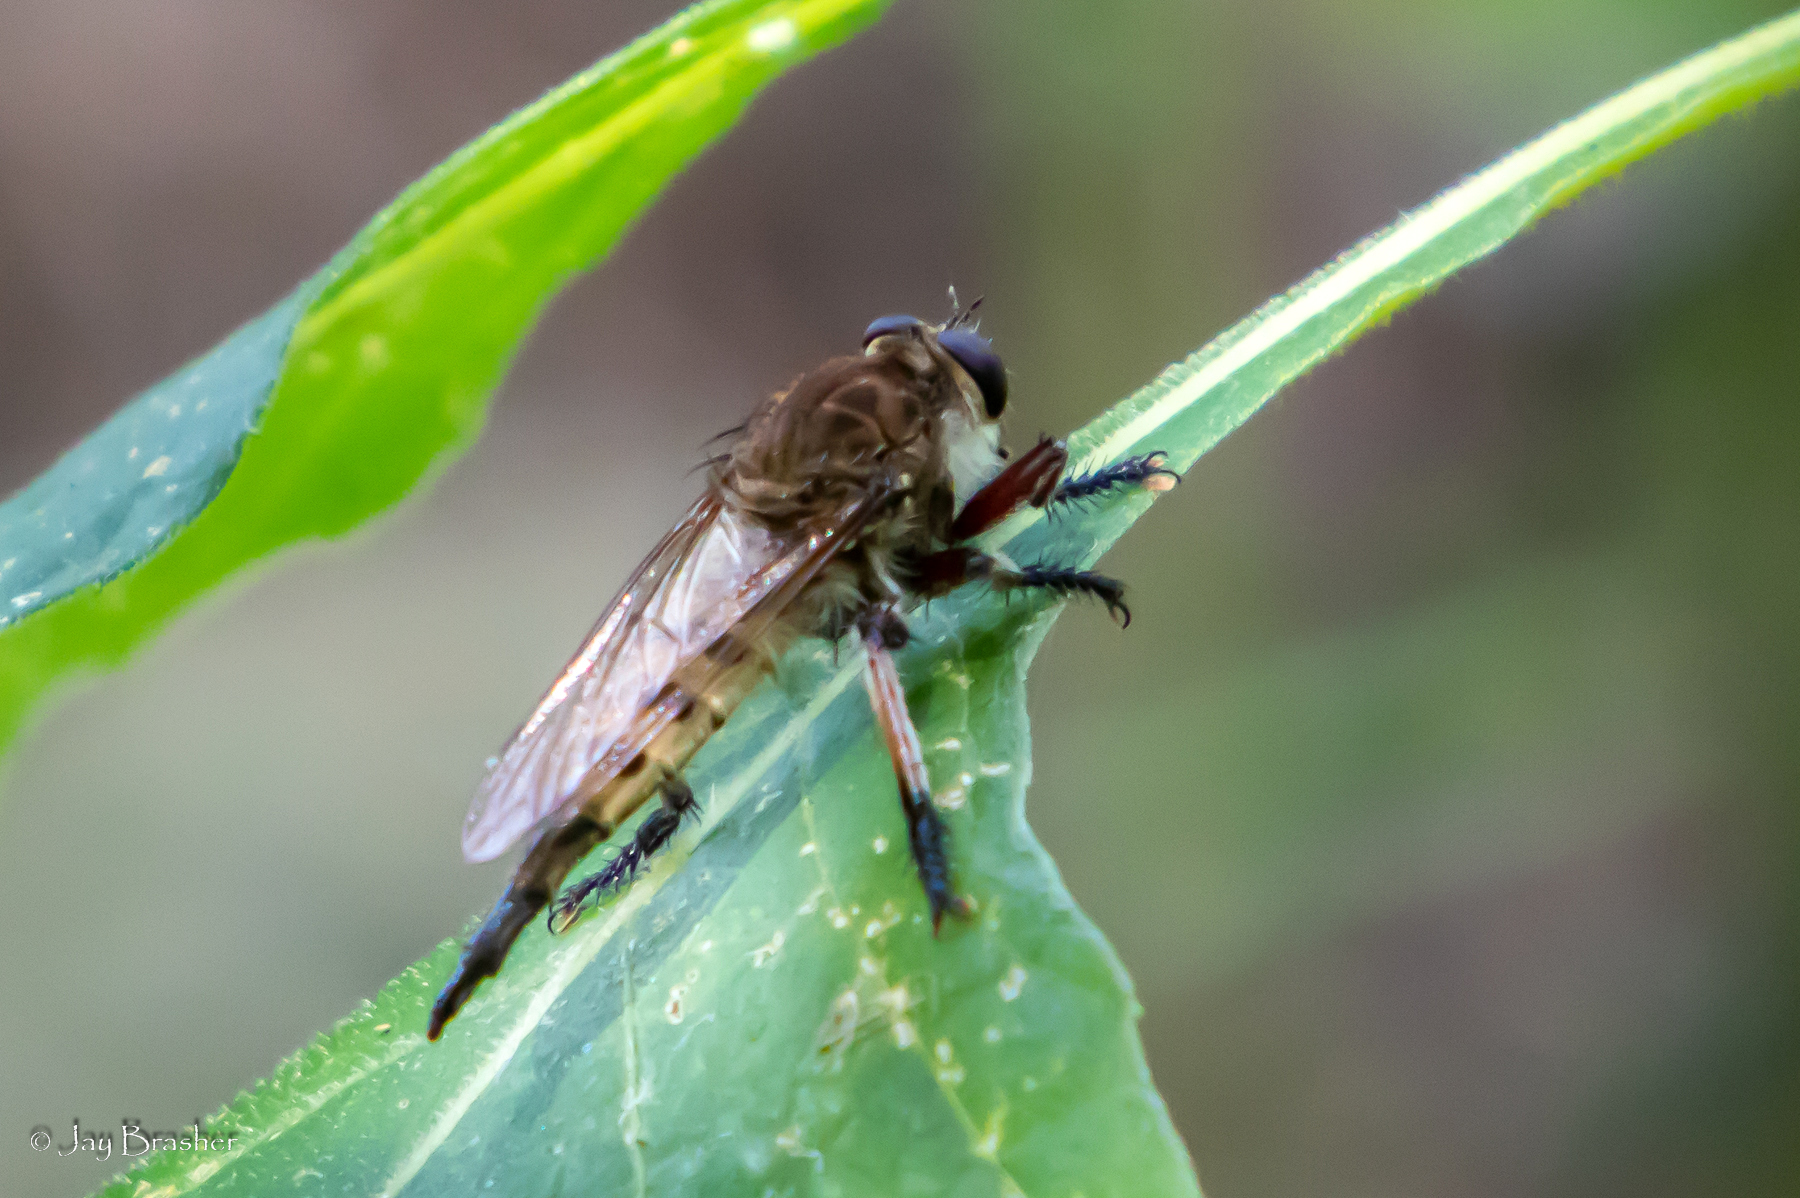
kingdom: Animalia
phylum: Arthropoda
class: Insecta
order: Diptera
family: Asilidae
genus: Promachus
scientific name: Promachus hinei
